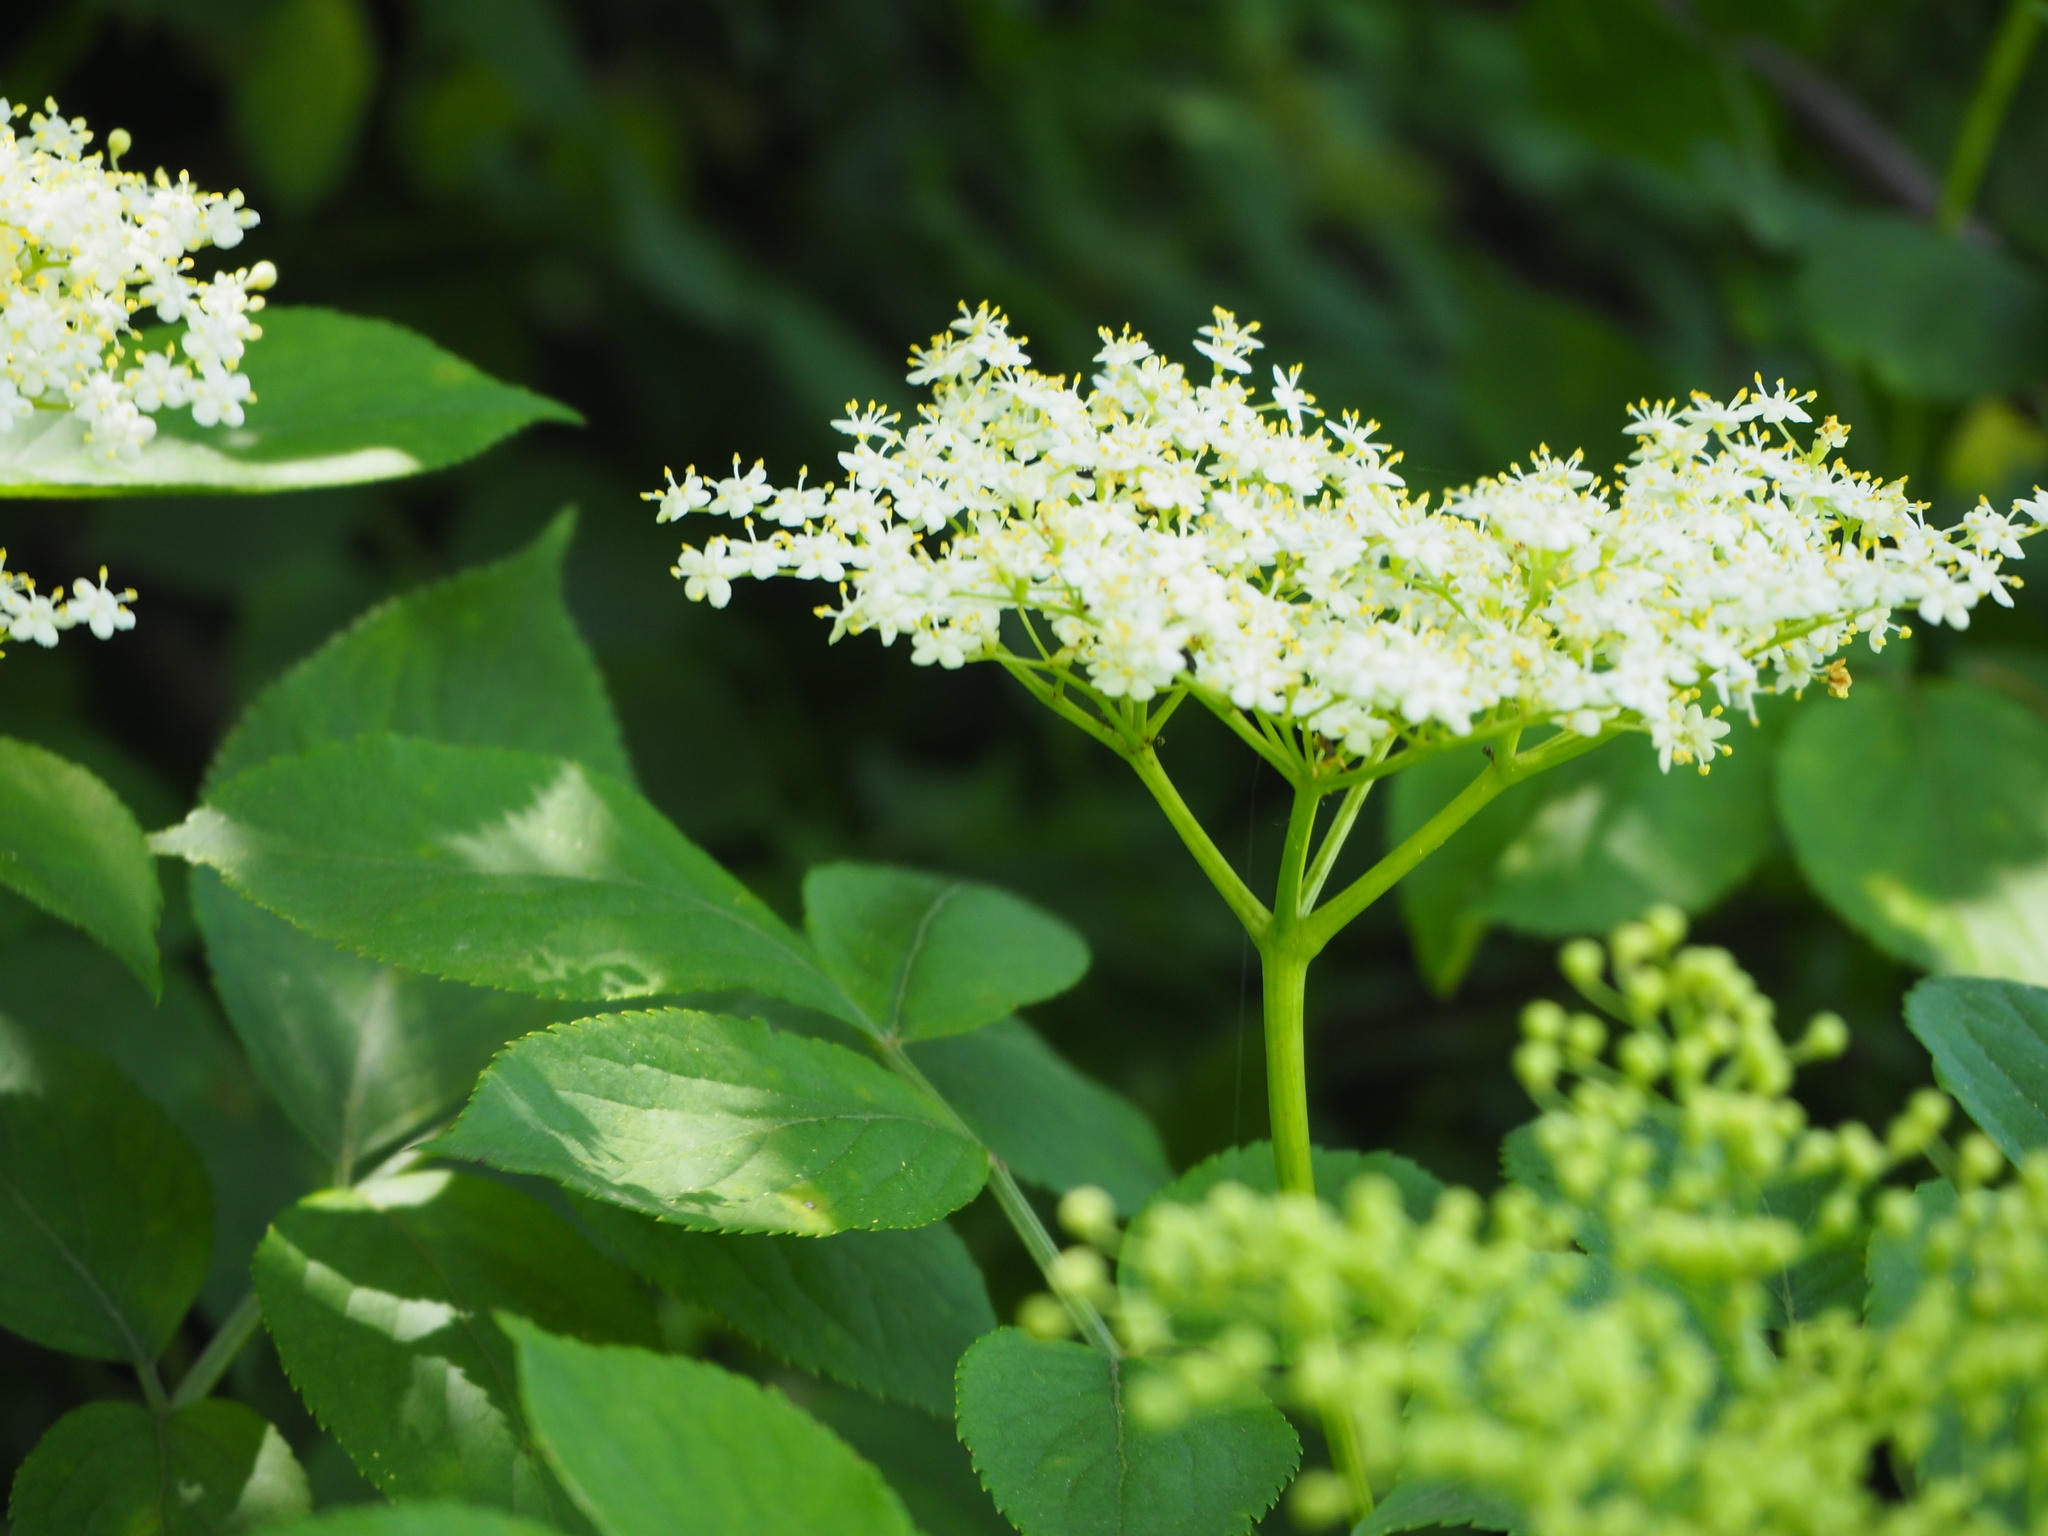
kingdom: Plantae
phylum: Tracheophyta
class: Magnoliopsida
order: Dipsacales
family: Viburnaceae
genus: Sambucus
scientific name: Sambucus nigra
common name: Elder
